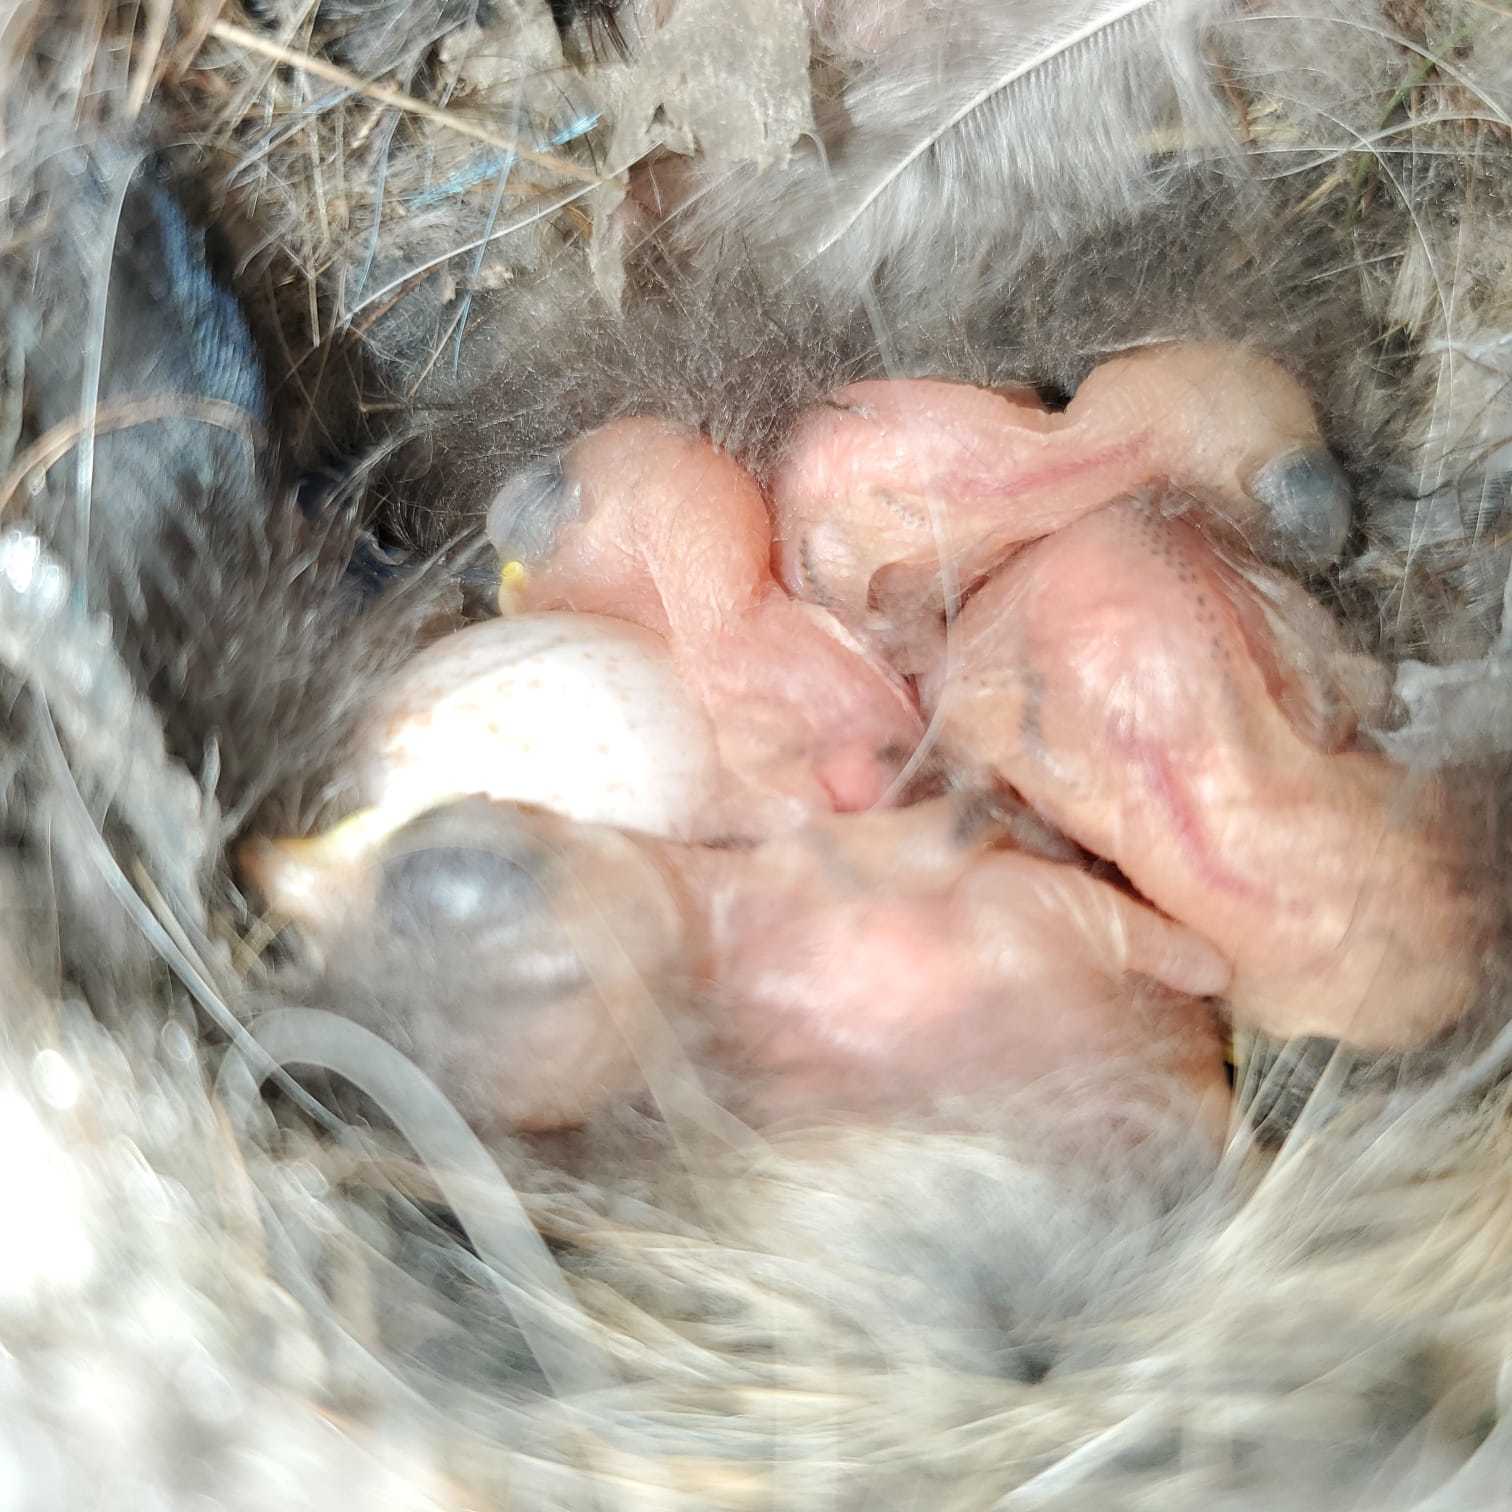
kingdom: Animalia
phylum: Chordata
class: Aves
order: Passeriformes
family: Troglodytidae
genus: Thryomanes
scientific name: Thryomanes bewickii
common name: Bewick's wren
